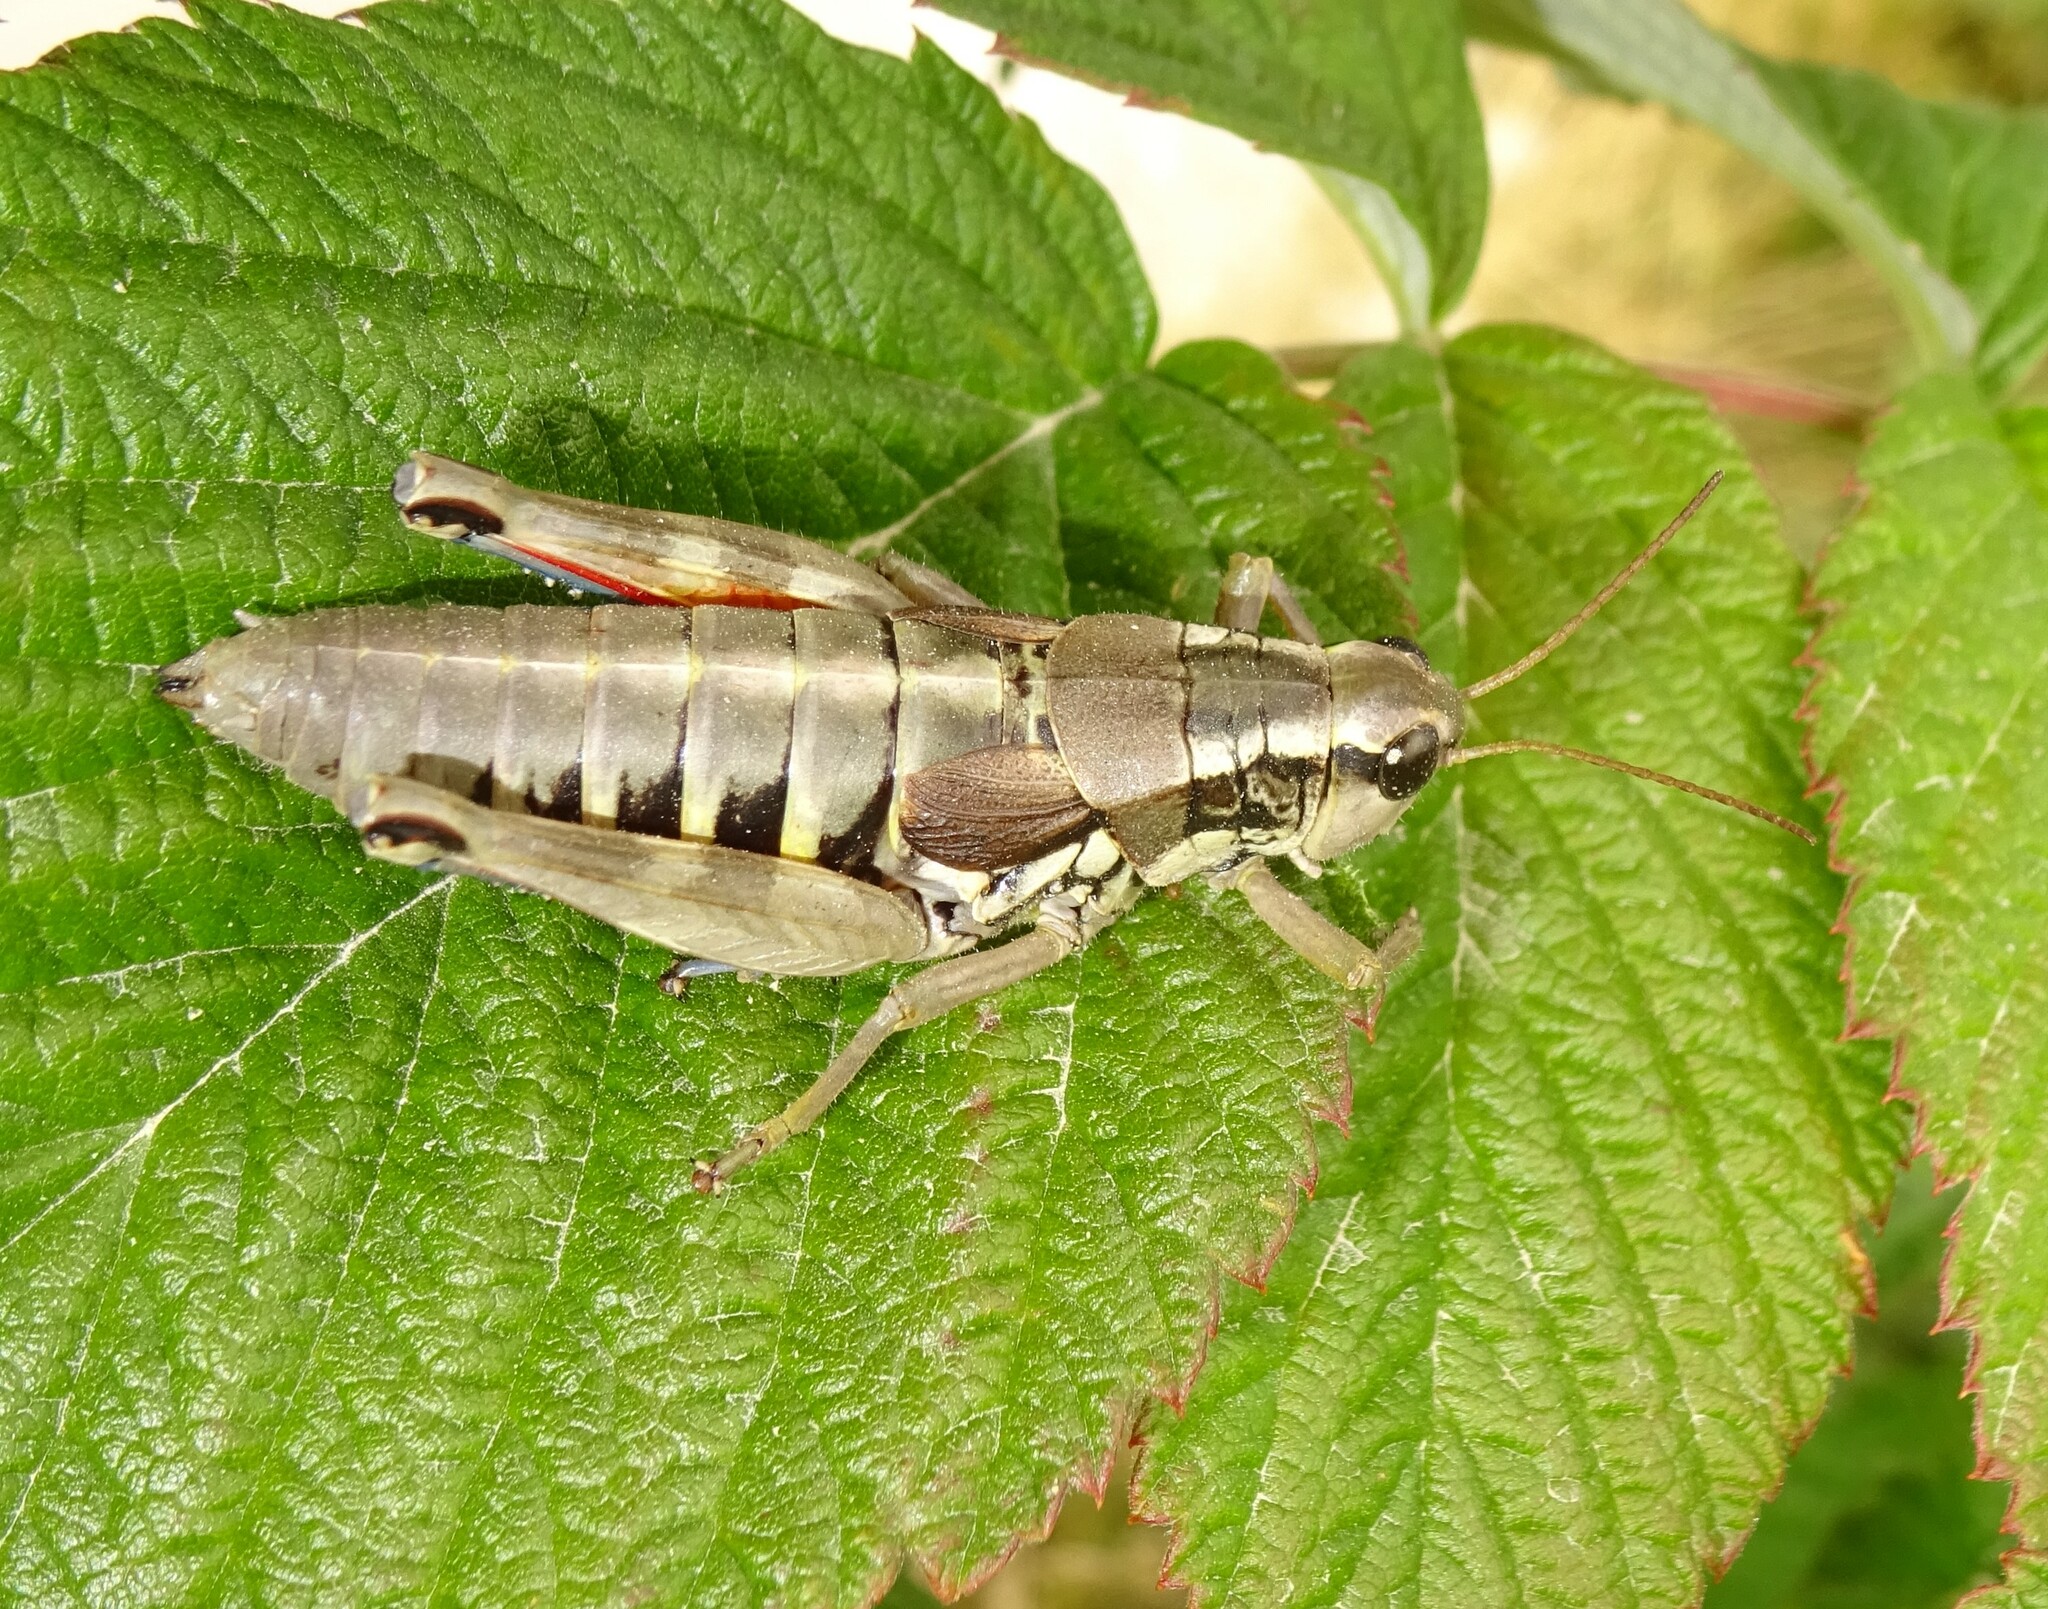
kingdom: Animalia
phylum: Arthropoda
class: Insecta
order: Orthoptera
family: Acrididae
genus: Podisma
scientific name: Podisma pedestris
